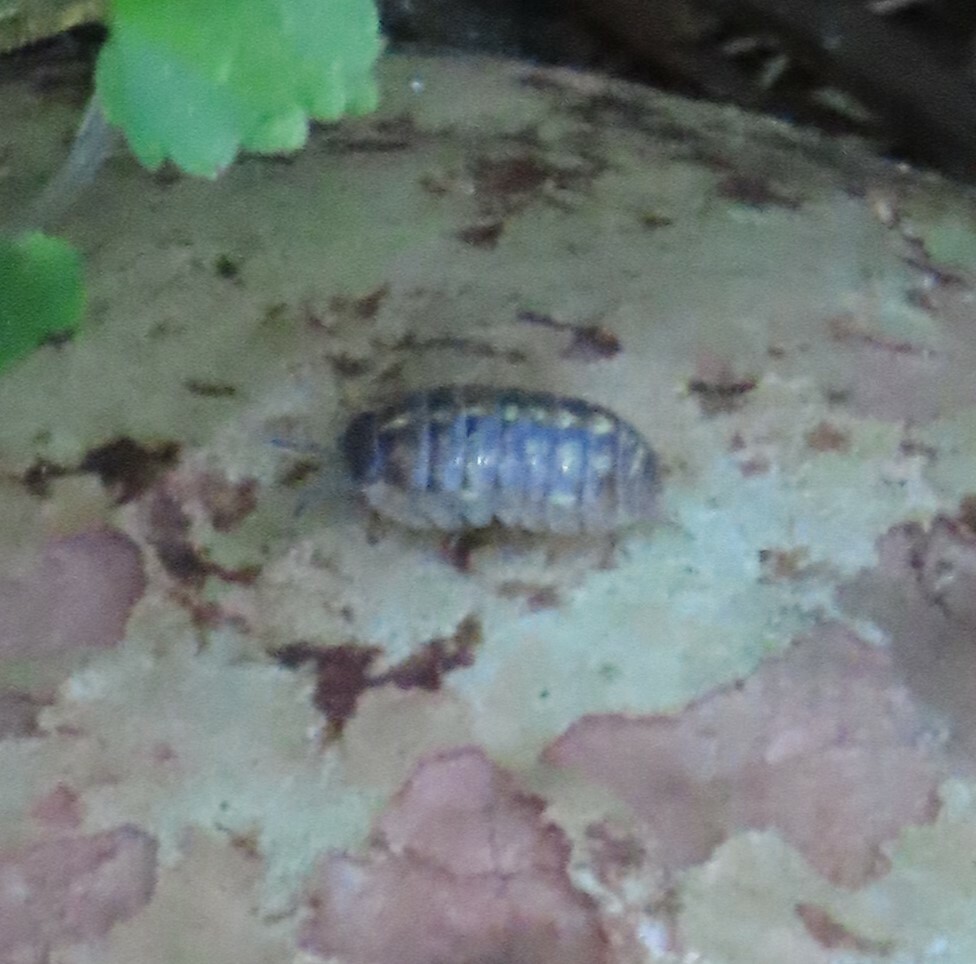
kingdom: Animalia
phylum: Arthropoda
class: Malacostraca
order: Isopoda
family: Armadillidiidae
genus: Armadillidium
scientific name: Armadillidium vulgare
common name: Common pill woodlouse
